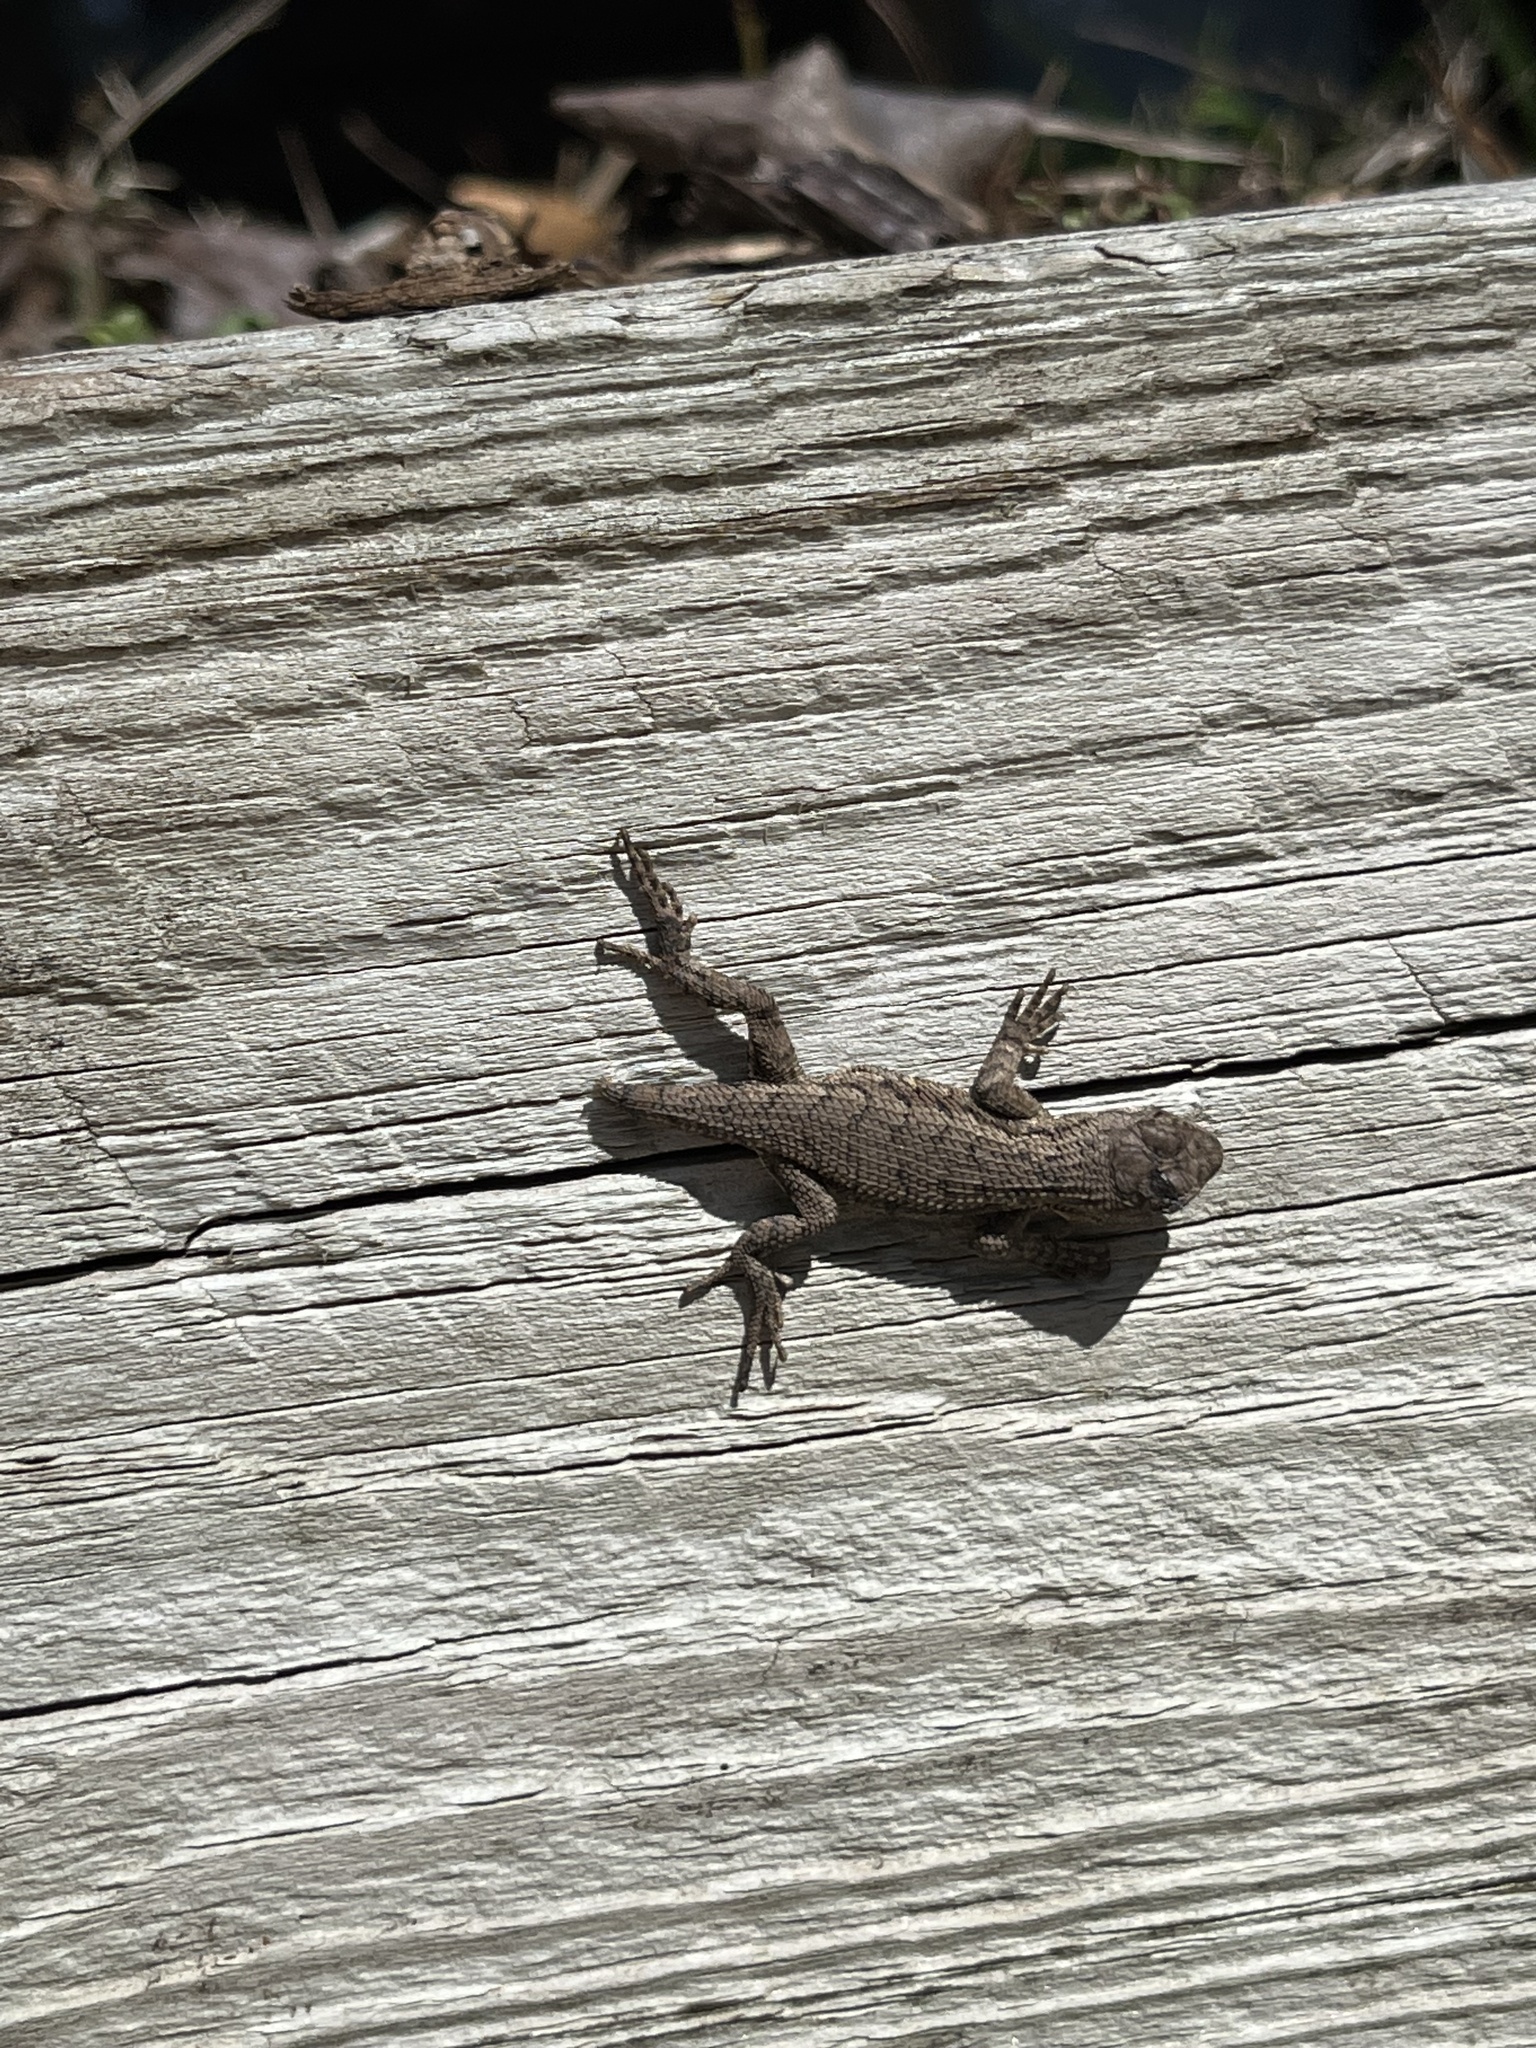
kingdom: Animalia
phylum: Chordata
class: Squamata
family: Phrynosomatidae
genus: Sceloporus
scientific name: Sceloporus undulatus
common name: Eastern fence lizard
